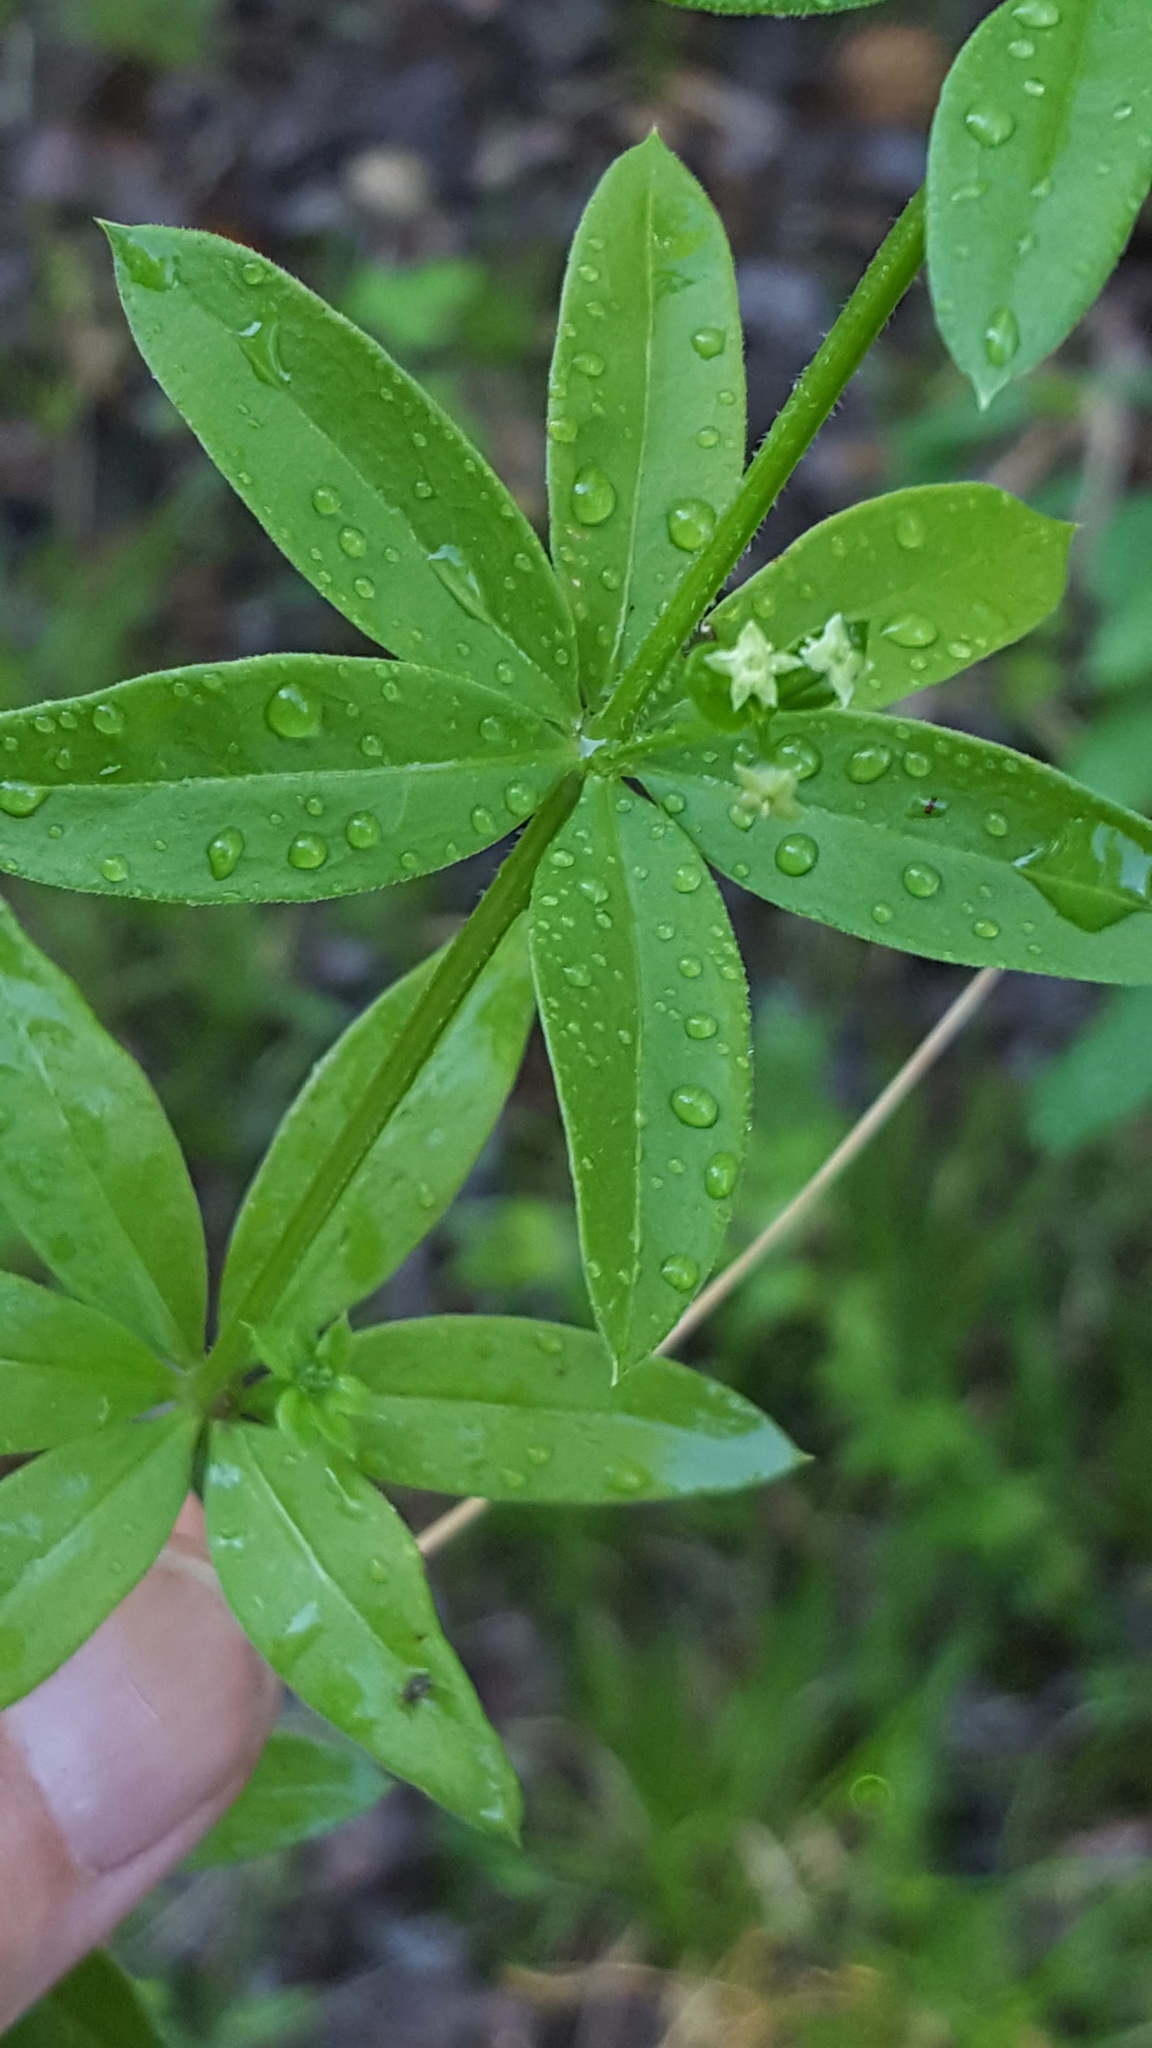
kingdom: Plantae
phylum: Tracheophyta
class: Magnoliopsida
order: Gentianales
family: Rubiaceae
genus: Galium
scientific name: Galium triflorum
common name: Fragrant bedstraw
